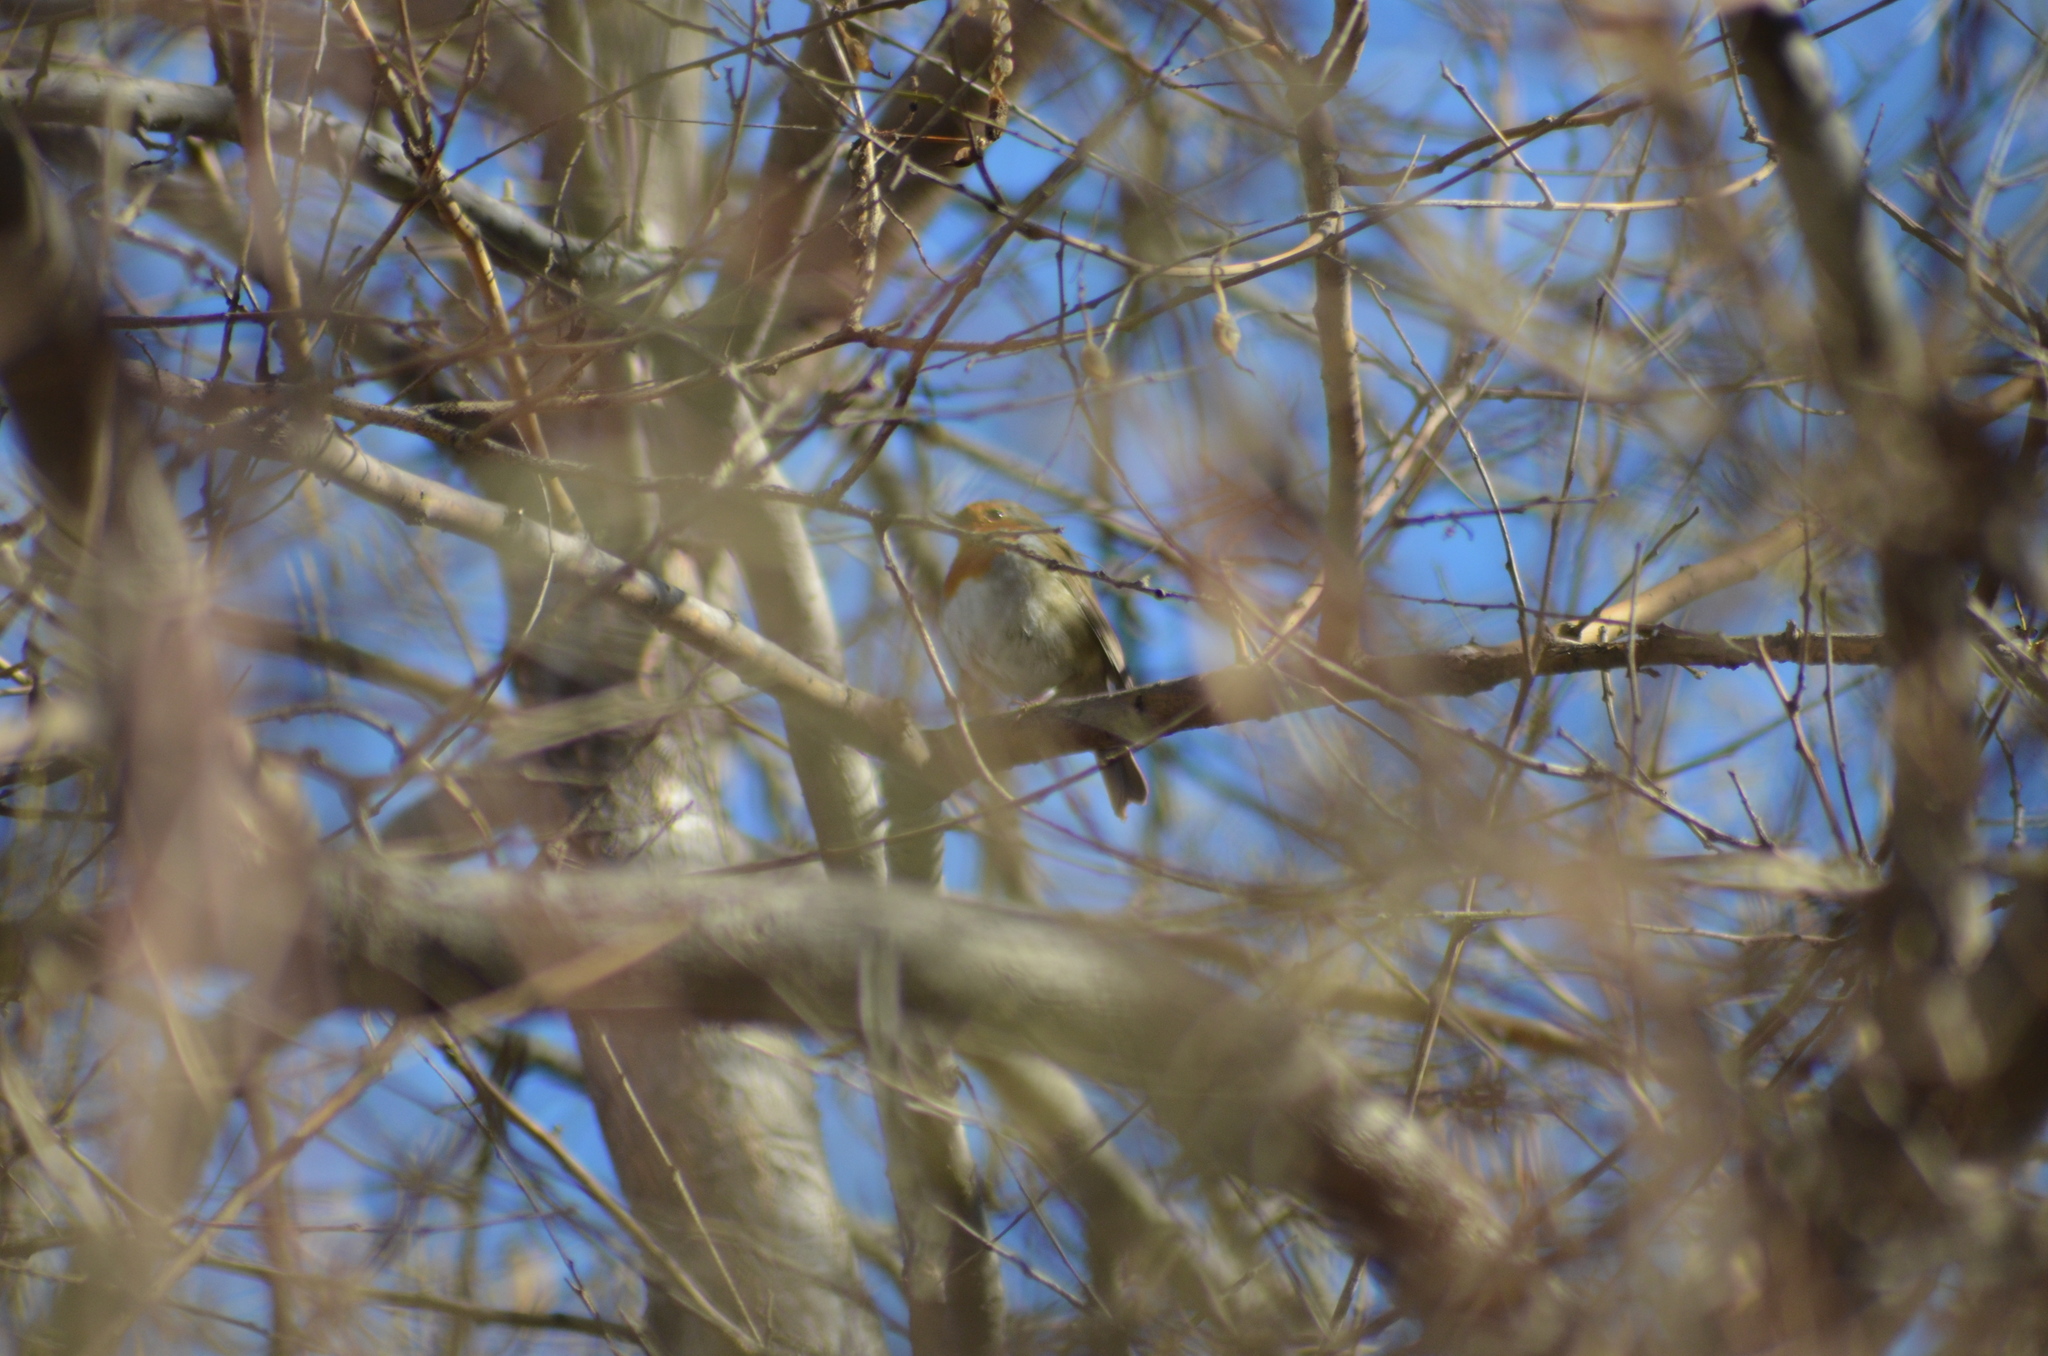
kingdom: Animalia
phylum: Chordata
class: Aves
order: Passeriformes
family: Muscicapidae
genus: Erithacus
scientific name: Erithacus rubecula
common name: European robin
